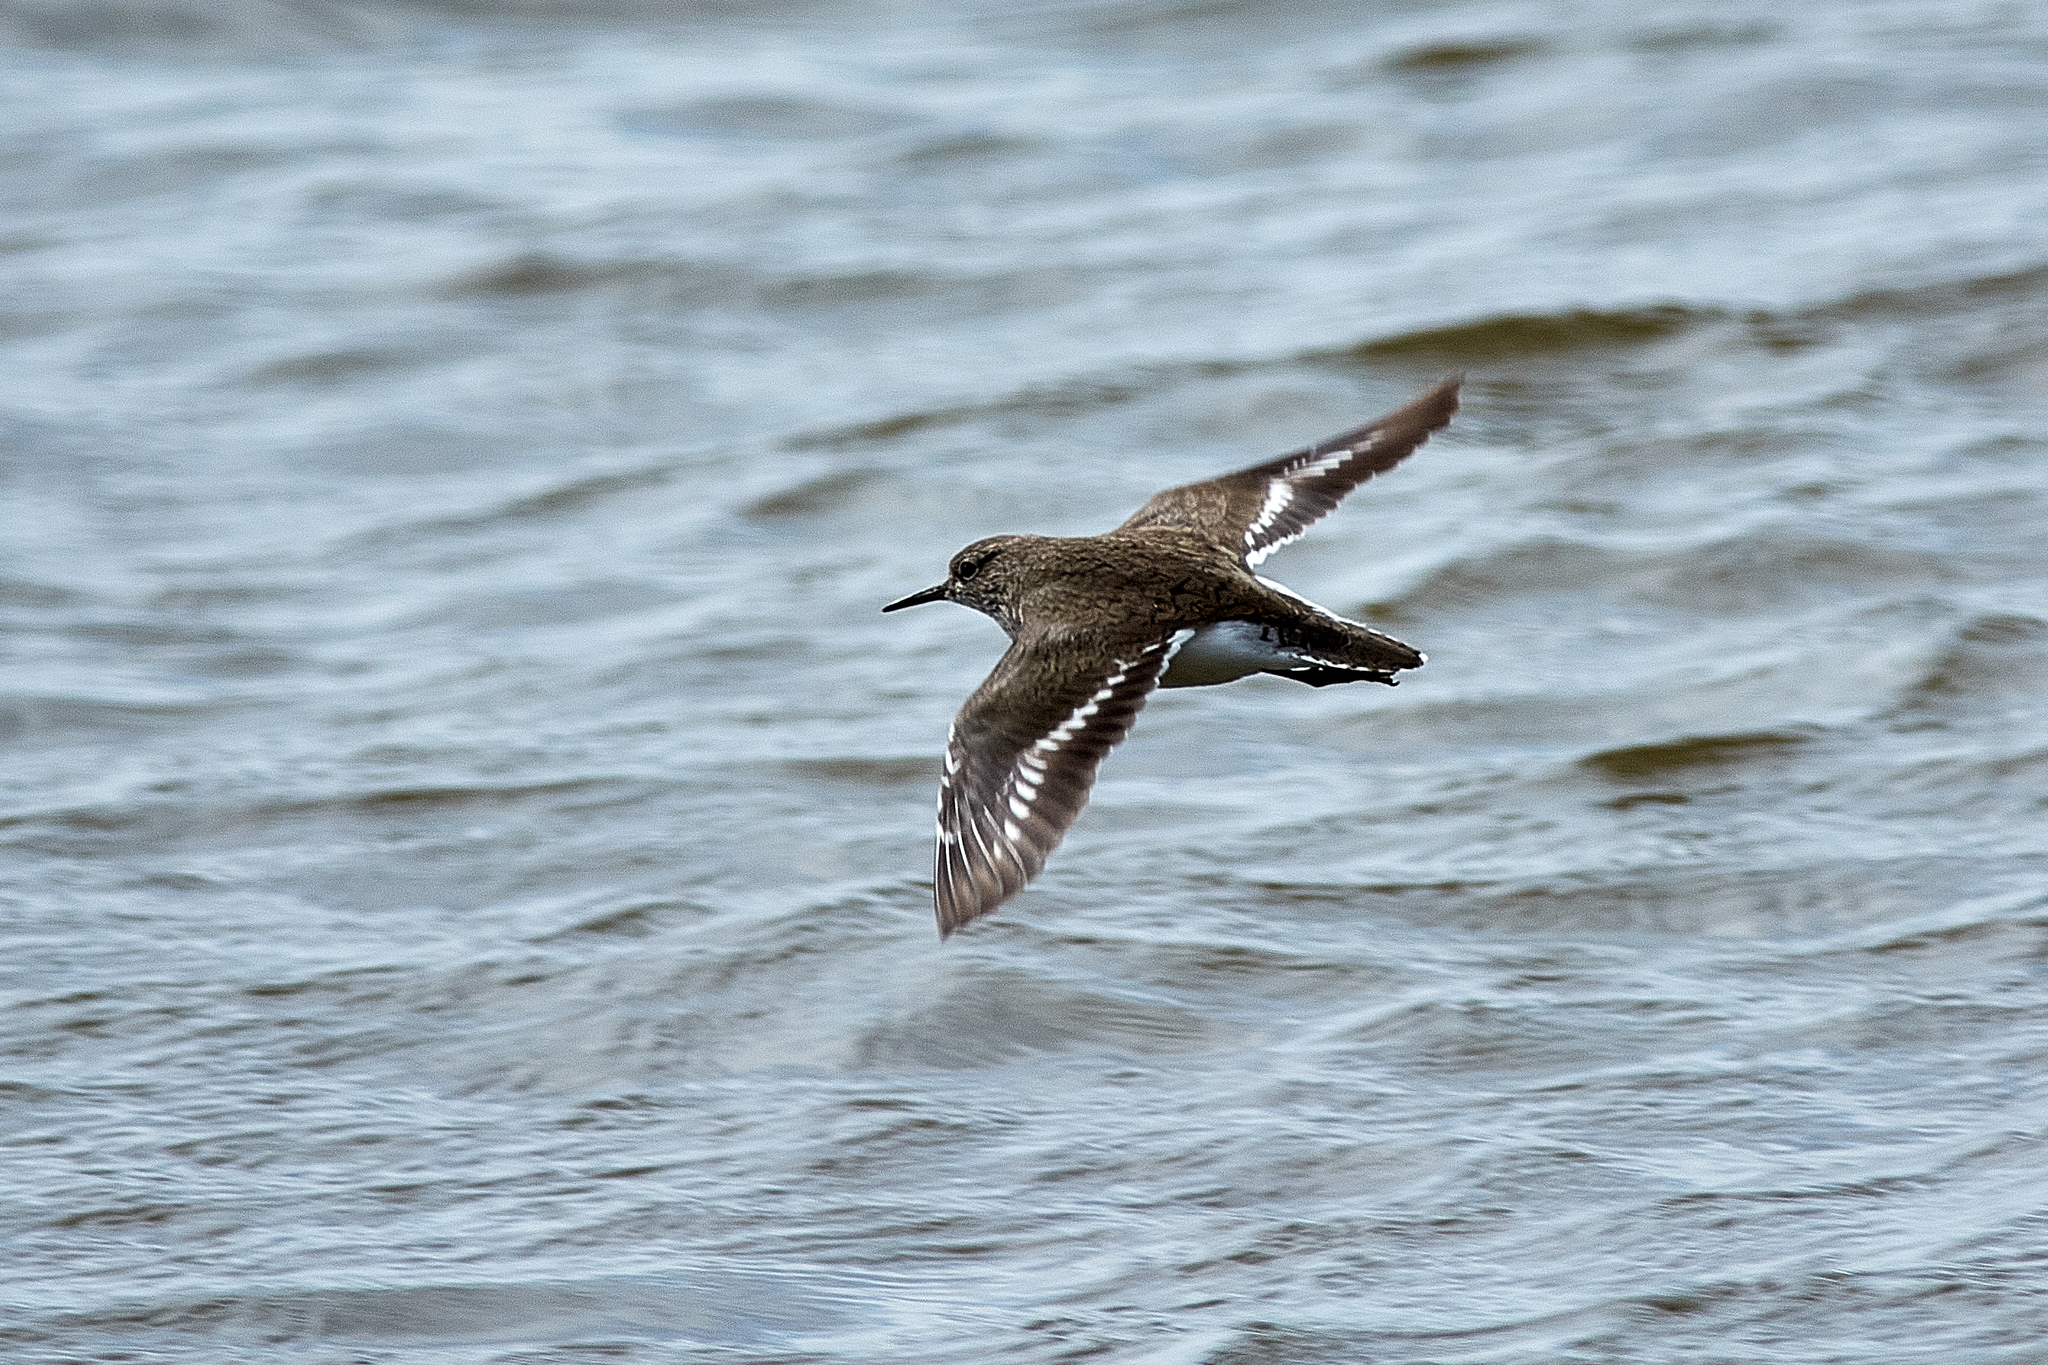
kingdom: Animalia
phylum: Chordata
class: Aves
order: Charadriiformes
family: Scolopacidae
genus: Actitis
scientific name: Actitis hypoleucos
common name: Common sandpiper
